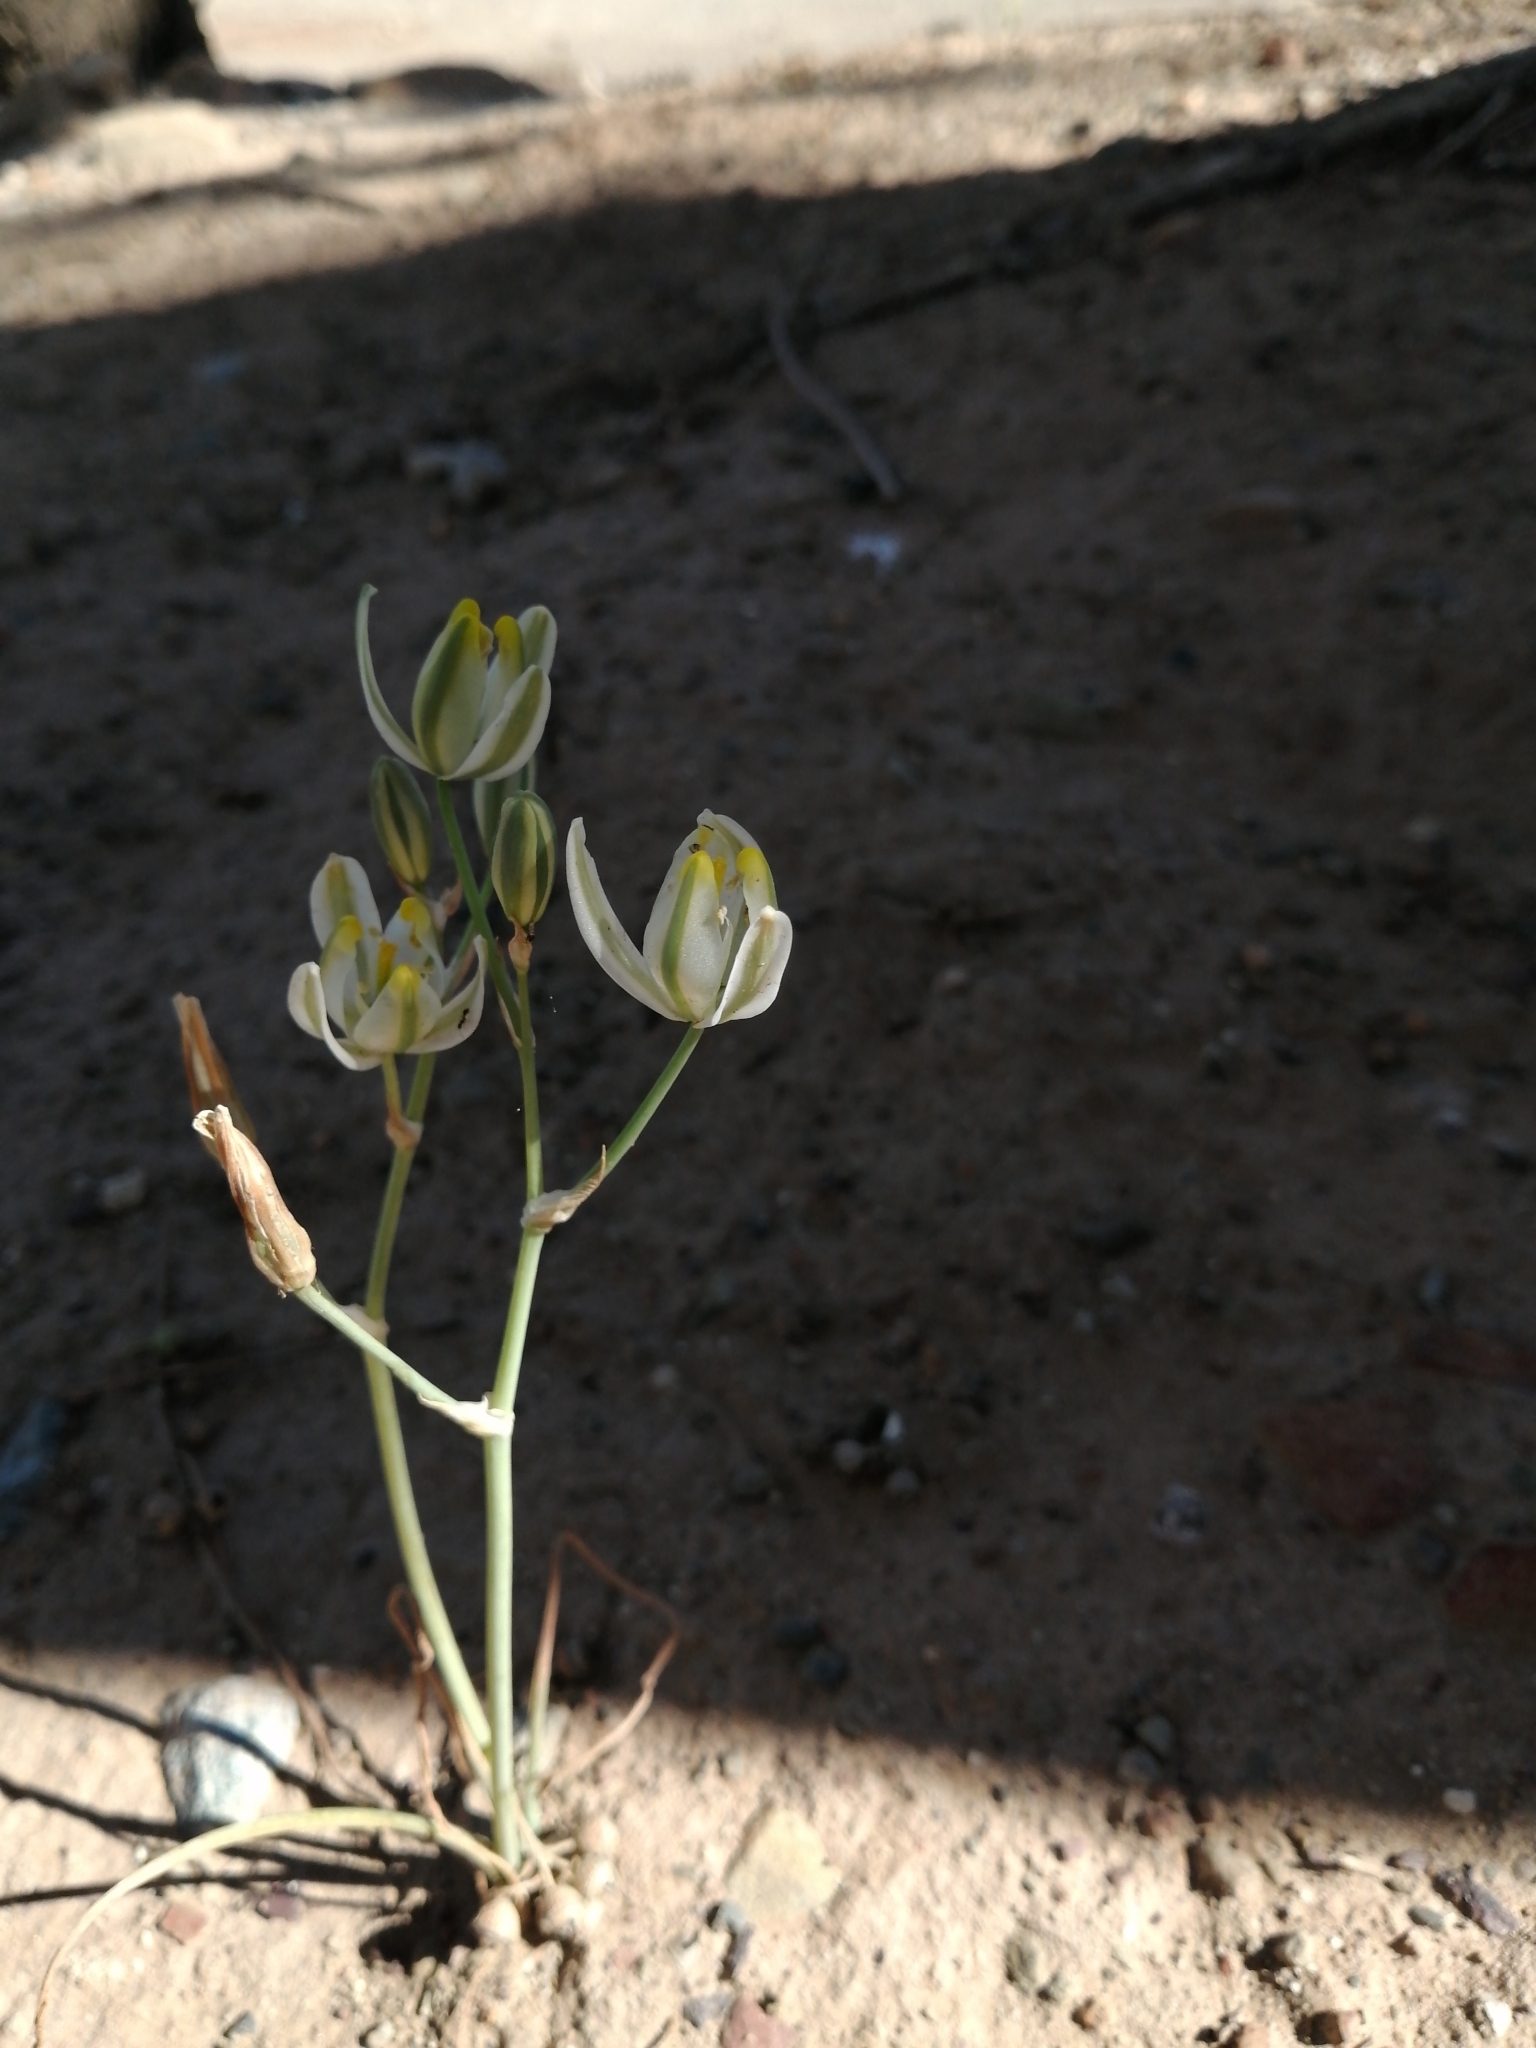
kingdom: Plantae
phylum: Tracheophyta
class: Liliopsida
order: Asparagales
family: Asparagaceae
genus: Albuca
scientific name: Albuca longipes
